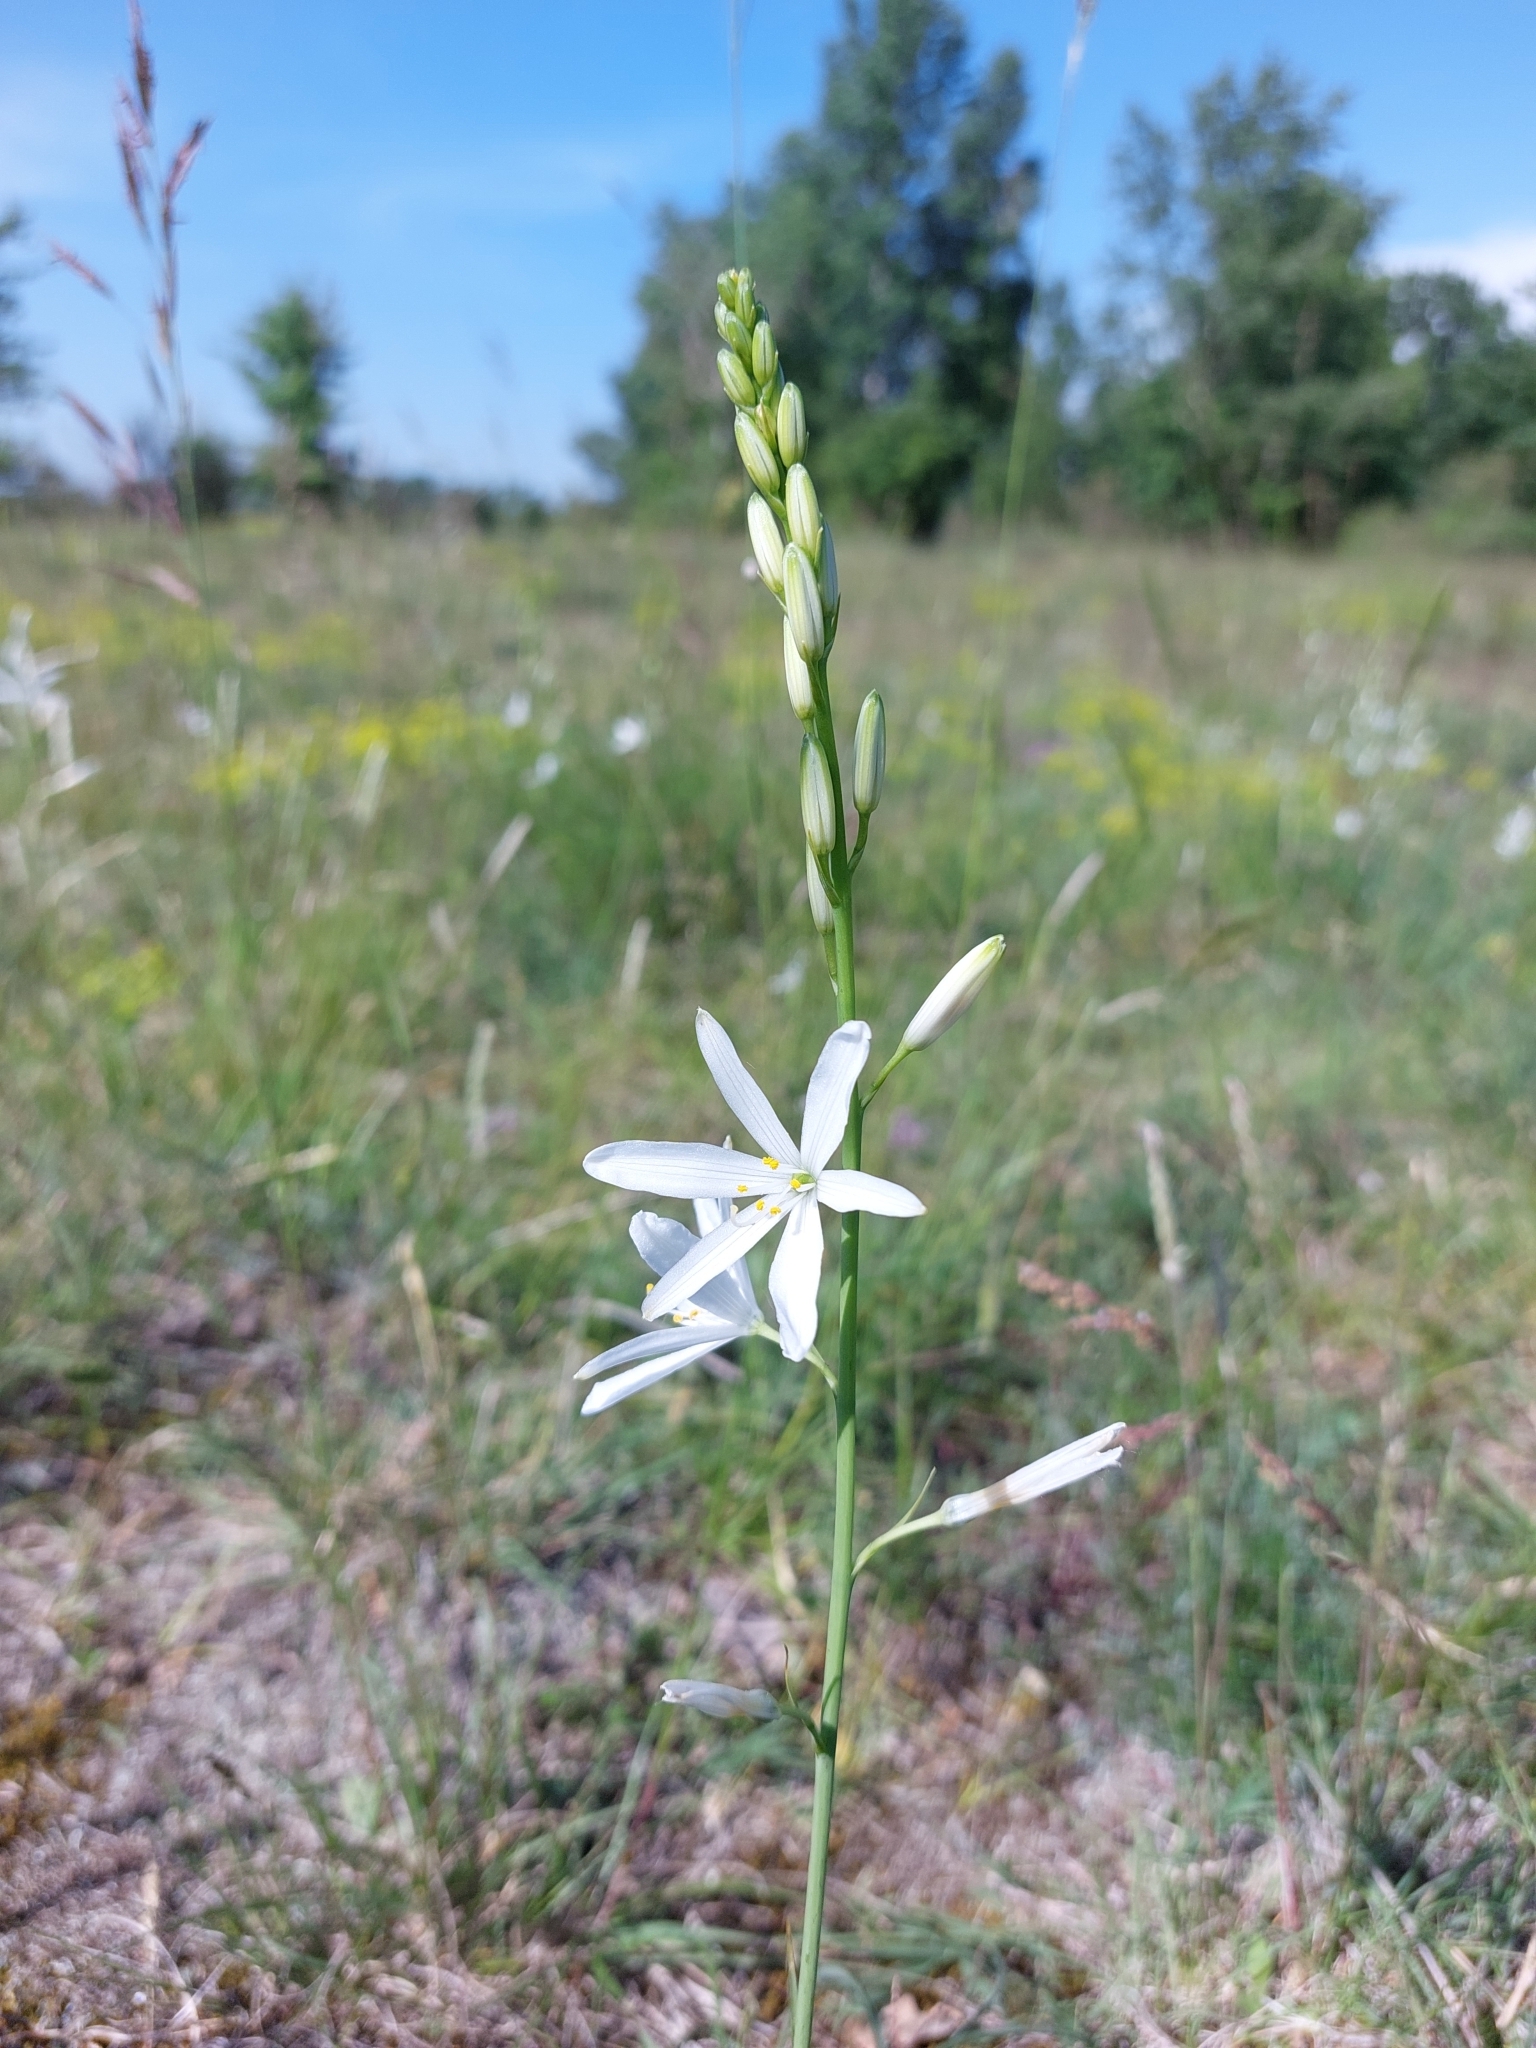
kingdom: Plantae
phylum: Tracheophyta
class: Liliopsida
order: Asparagales
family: Asparagaceae
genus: Anthericum
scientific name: Anthericum liliago
